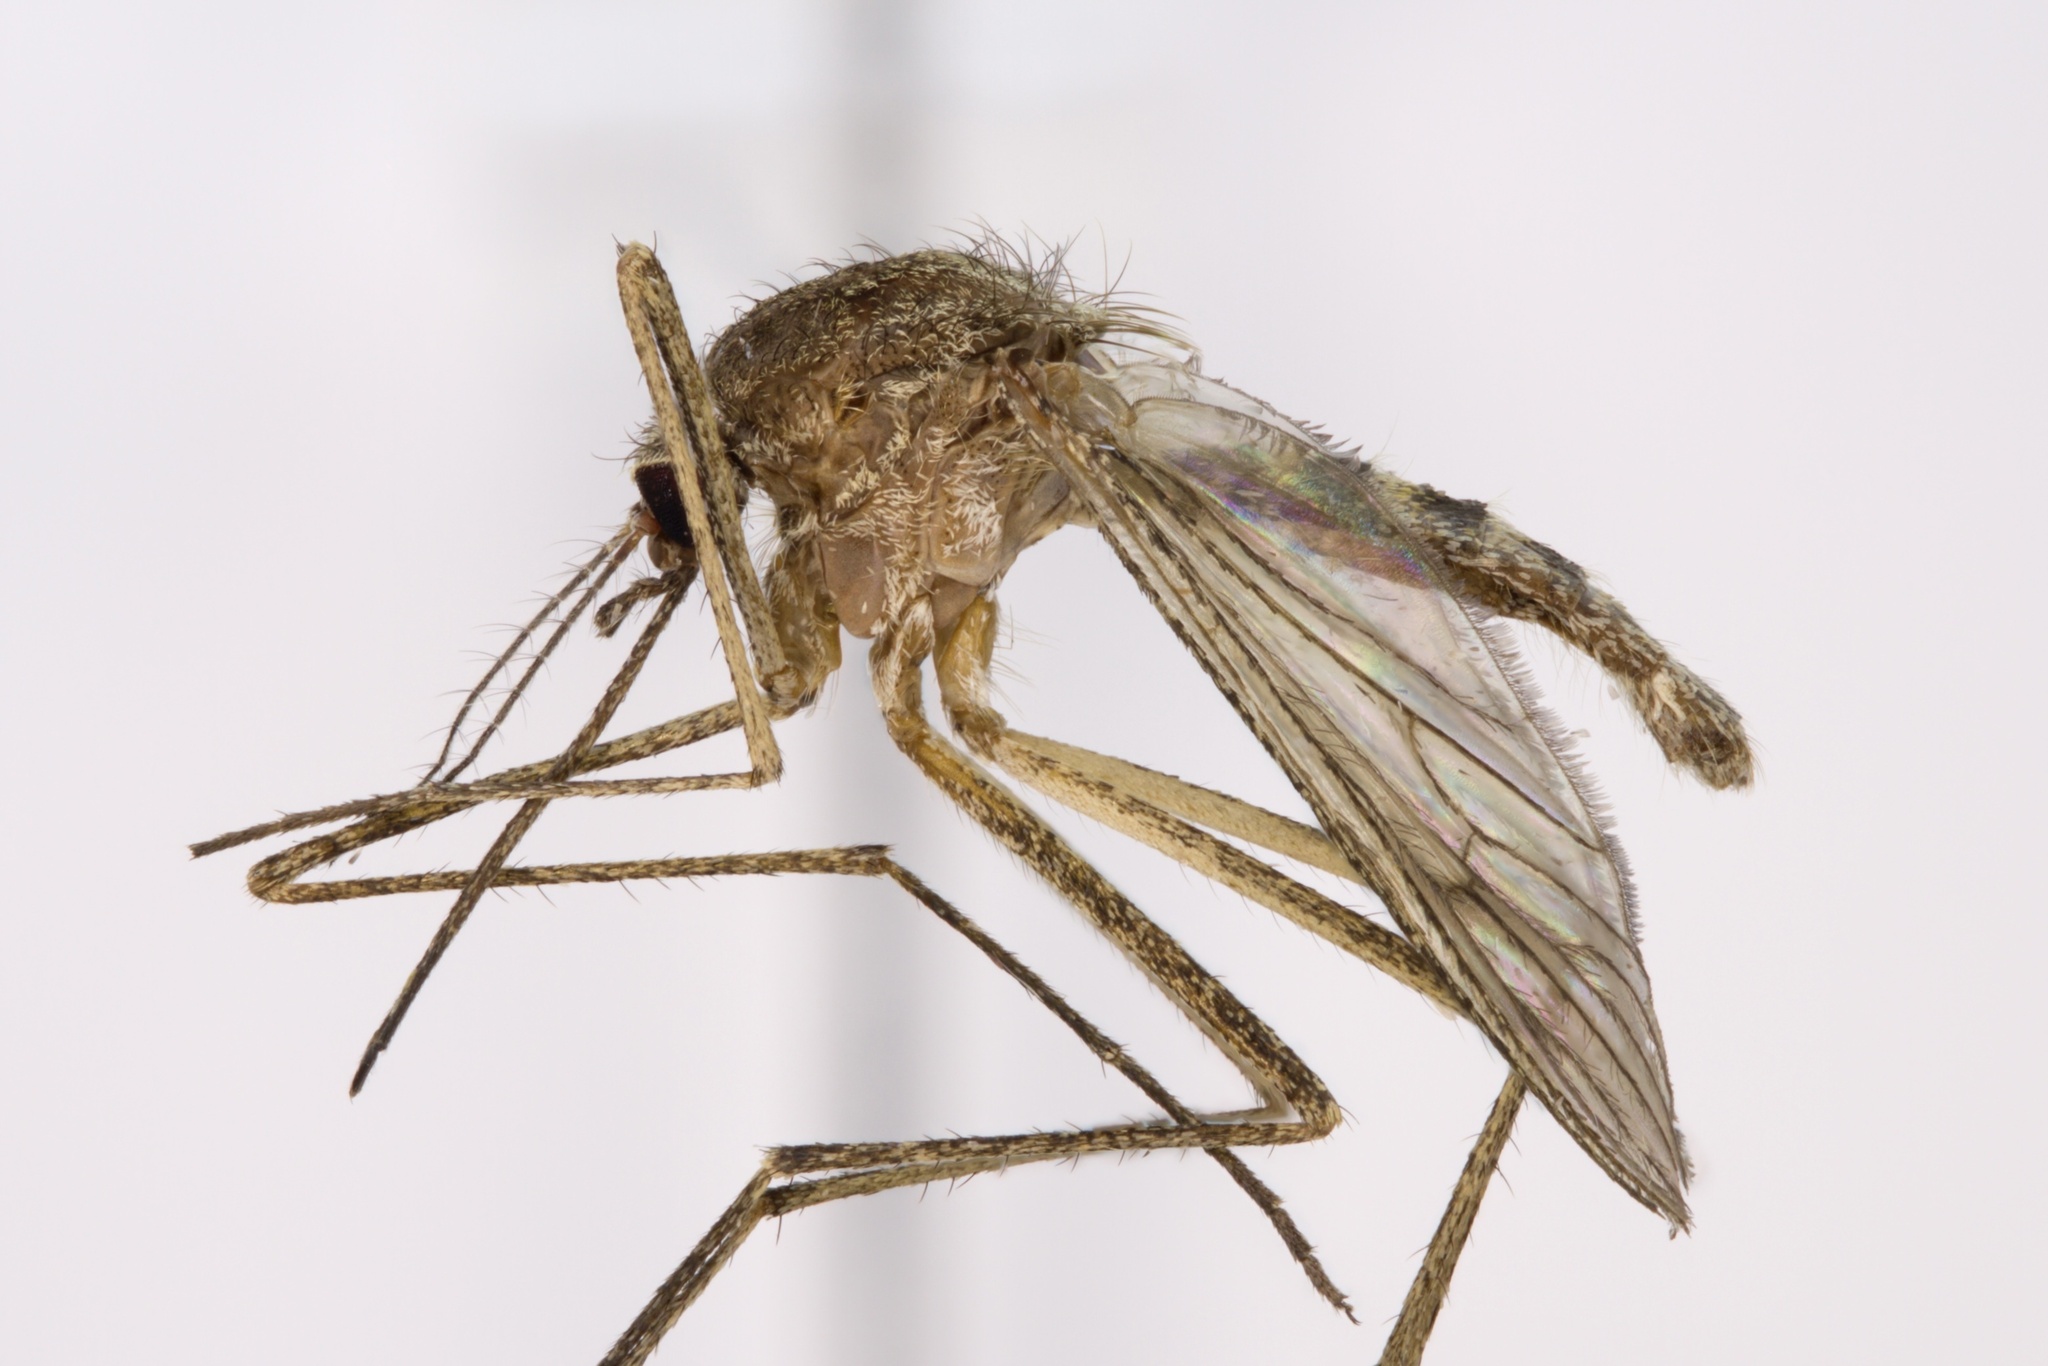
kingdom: Animalia
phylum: Arthropoda
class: Insecta
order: Diptera
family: Culicidae
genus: Culiseta
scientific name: Culiseta inornata
